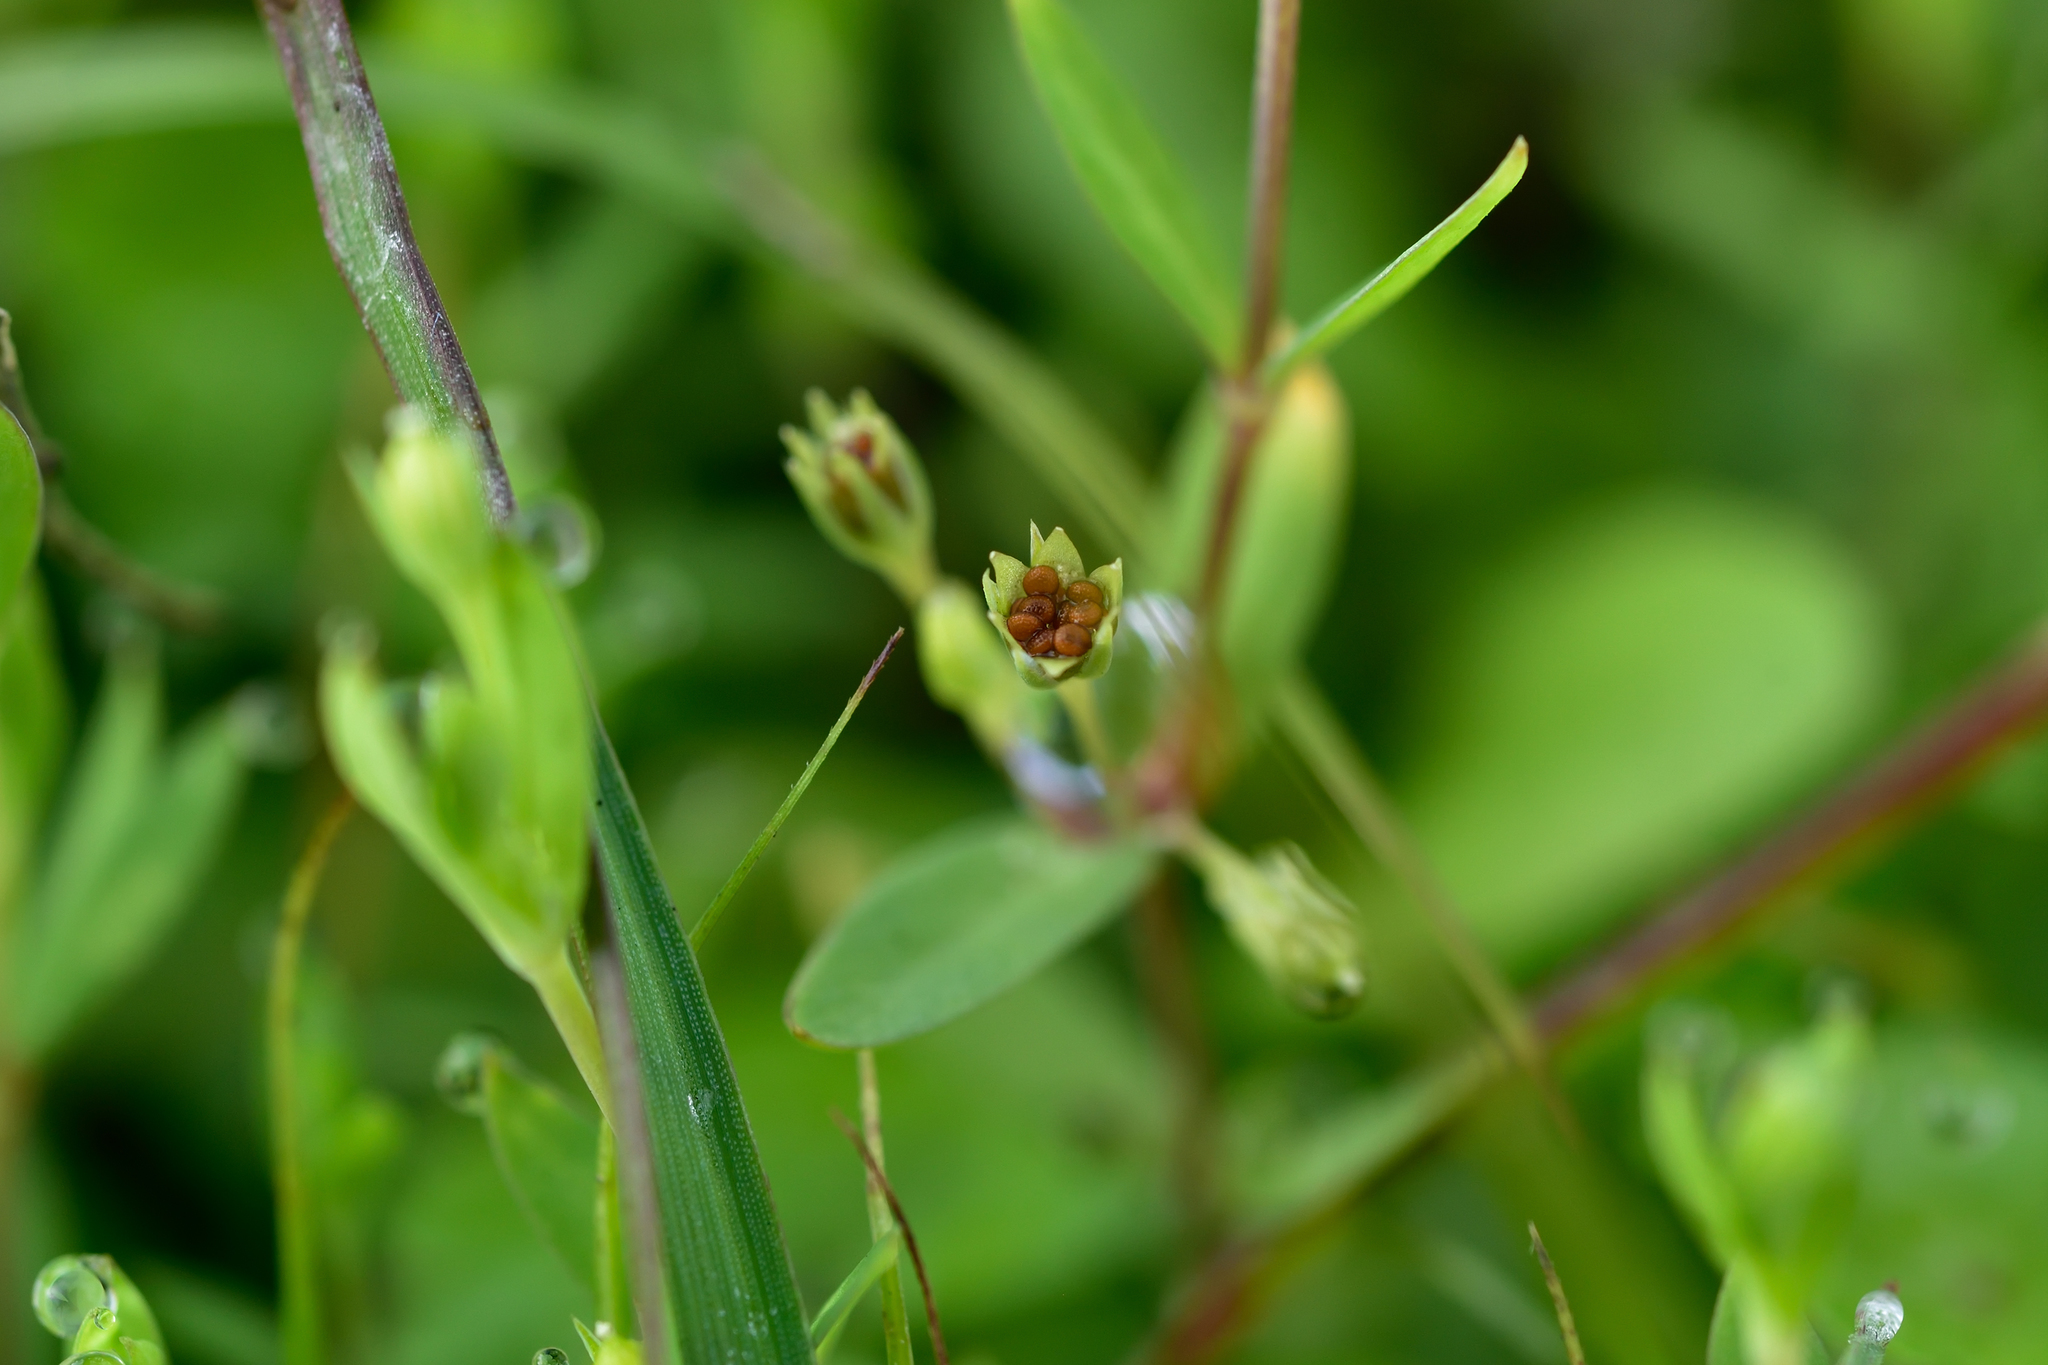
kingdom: Plantae
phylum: Tracheophyta
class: Magnoliopsida
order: Caryophyllales
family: Caryophyllaceae
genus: Stellaria
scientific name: Stellaria alsine
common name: Bog stitchwort
